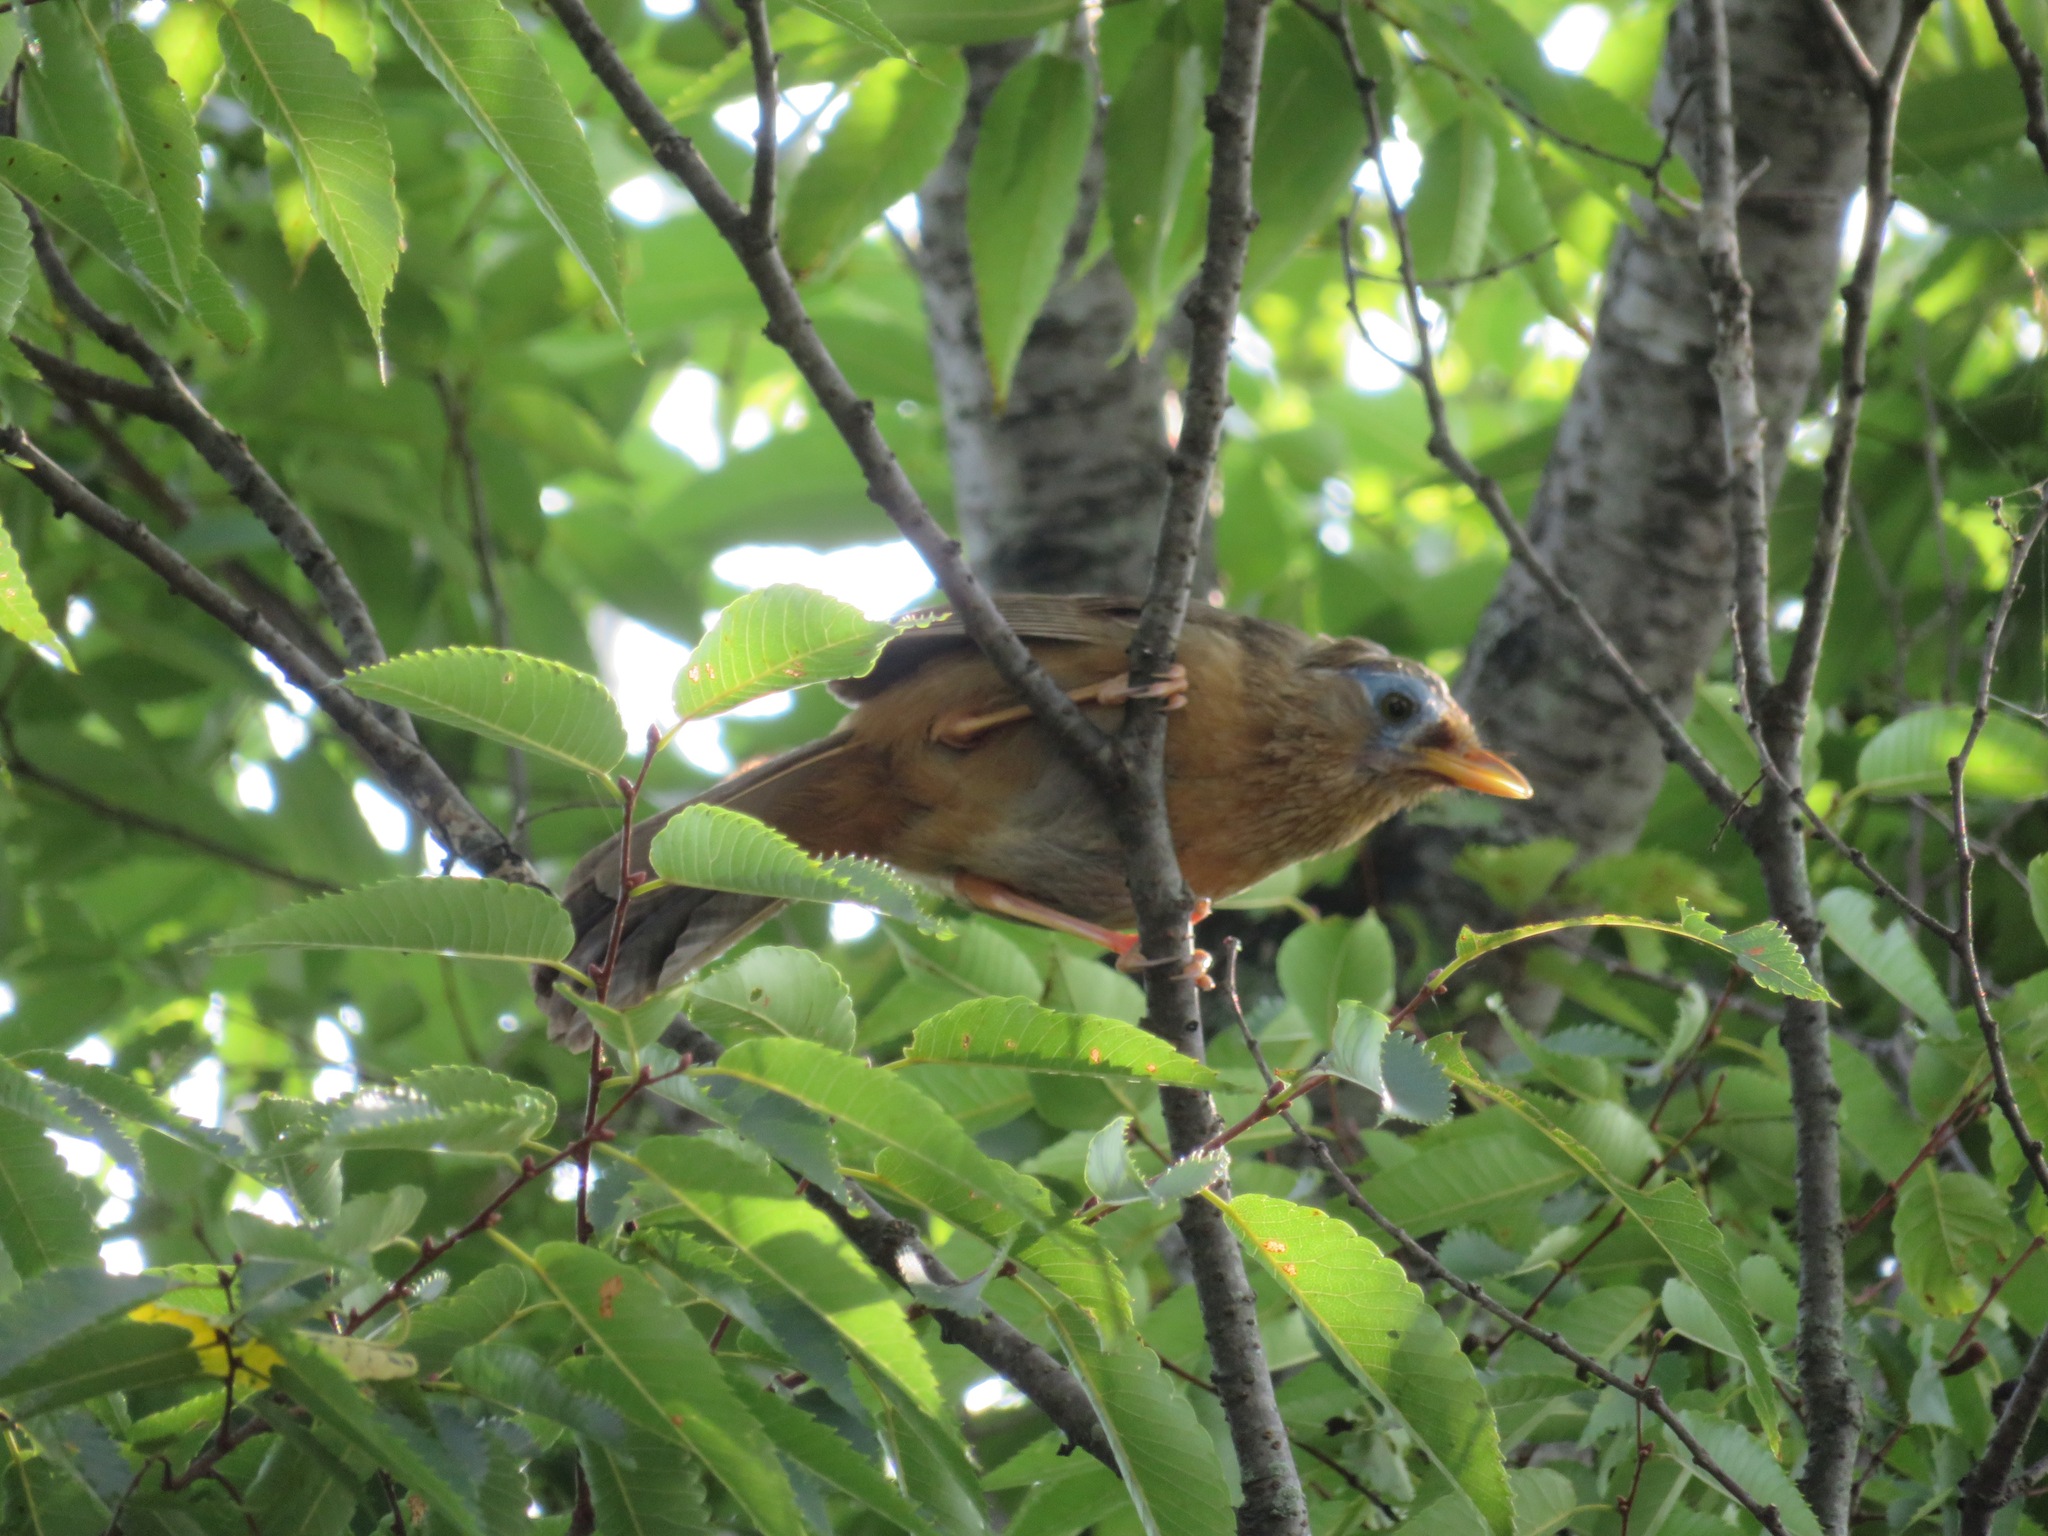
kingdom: Animalia
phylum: Chordata
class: Aves
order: Passeriformes
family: Leiothrichidae
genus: Garrulax
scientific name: Garrulax canorus
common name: Chinese hwamei
